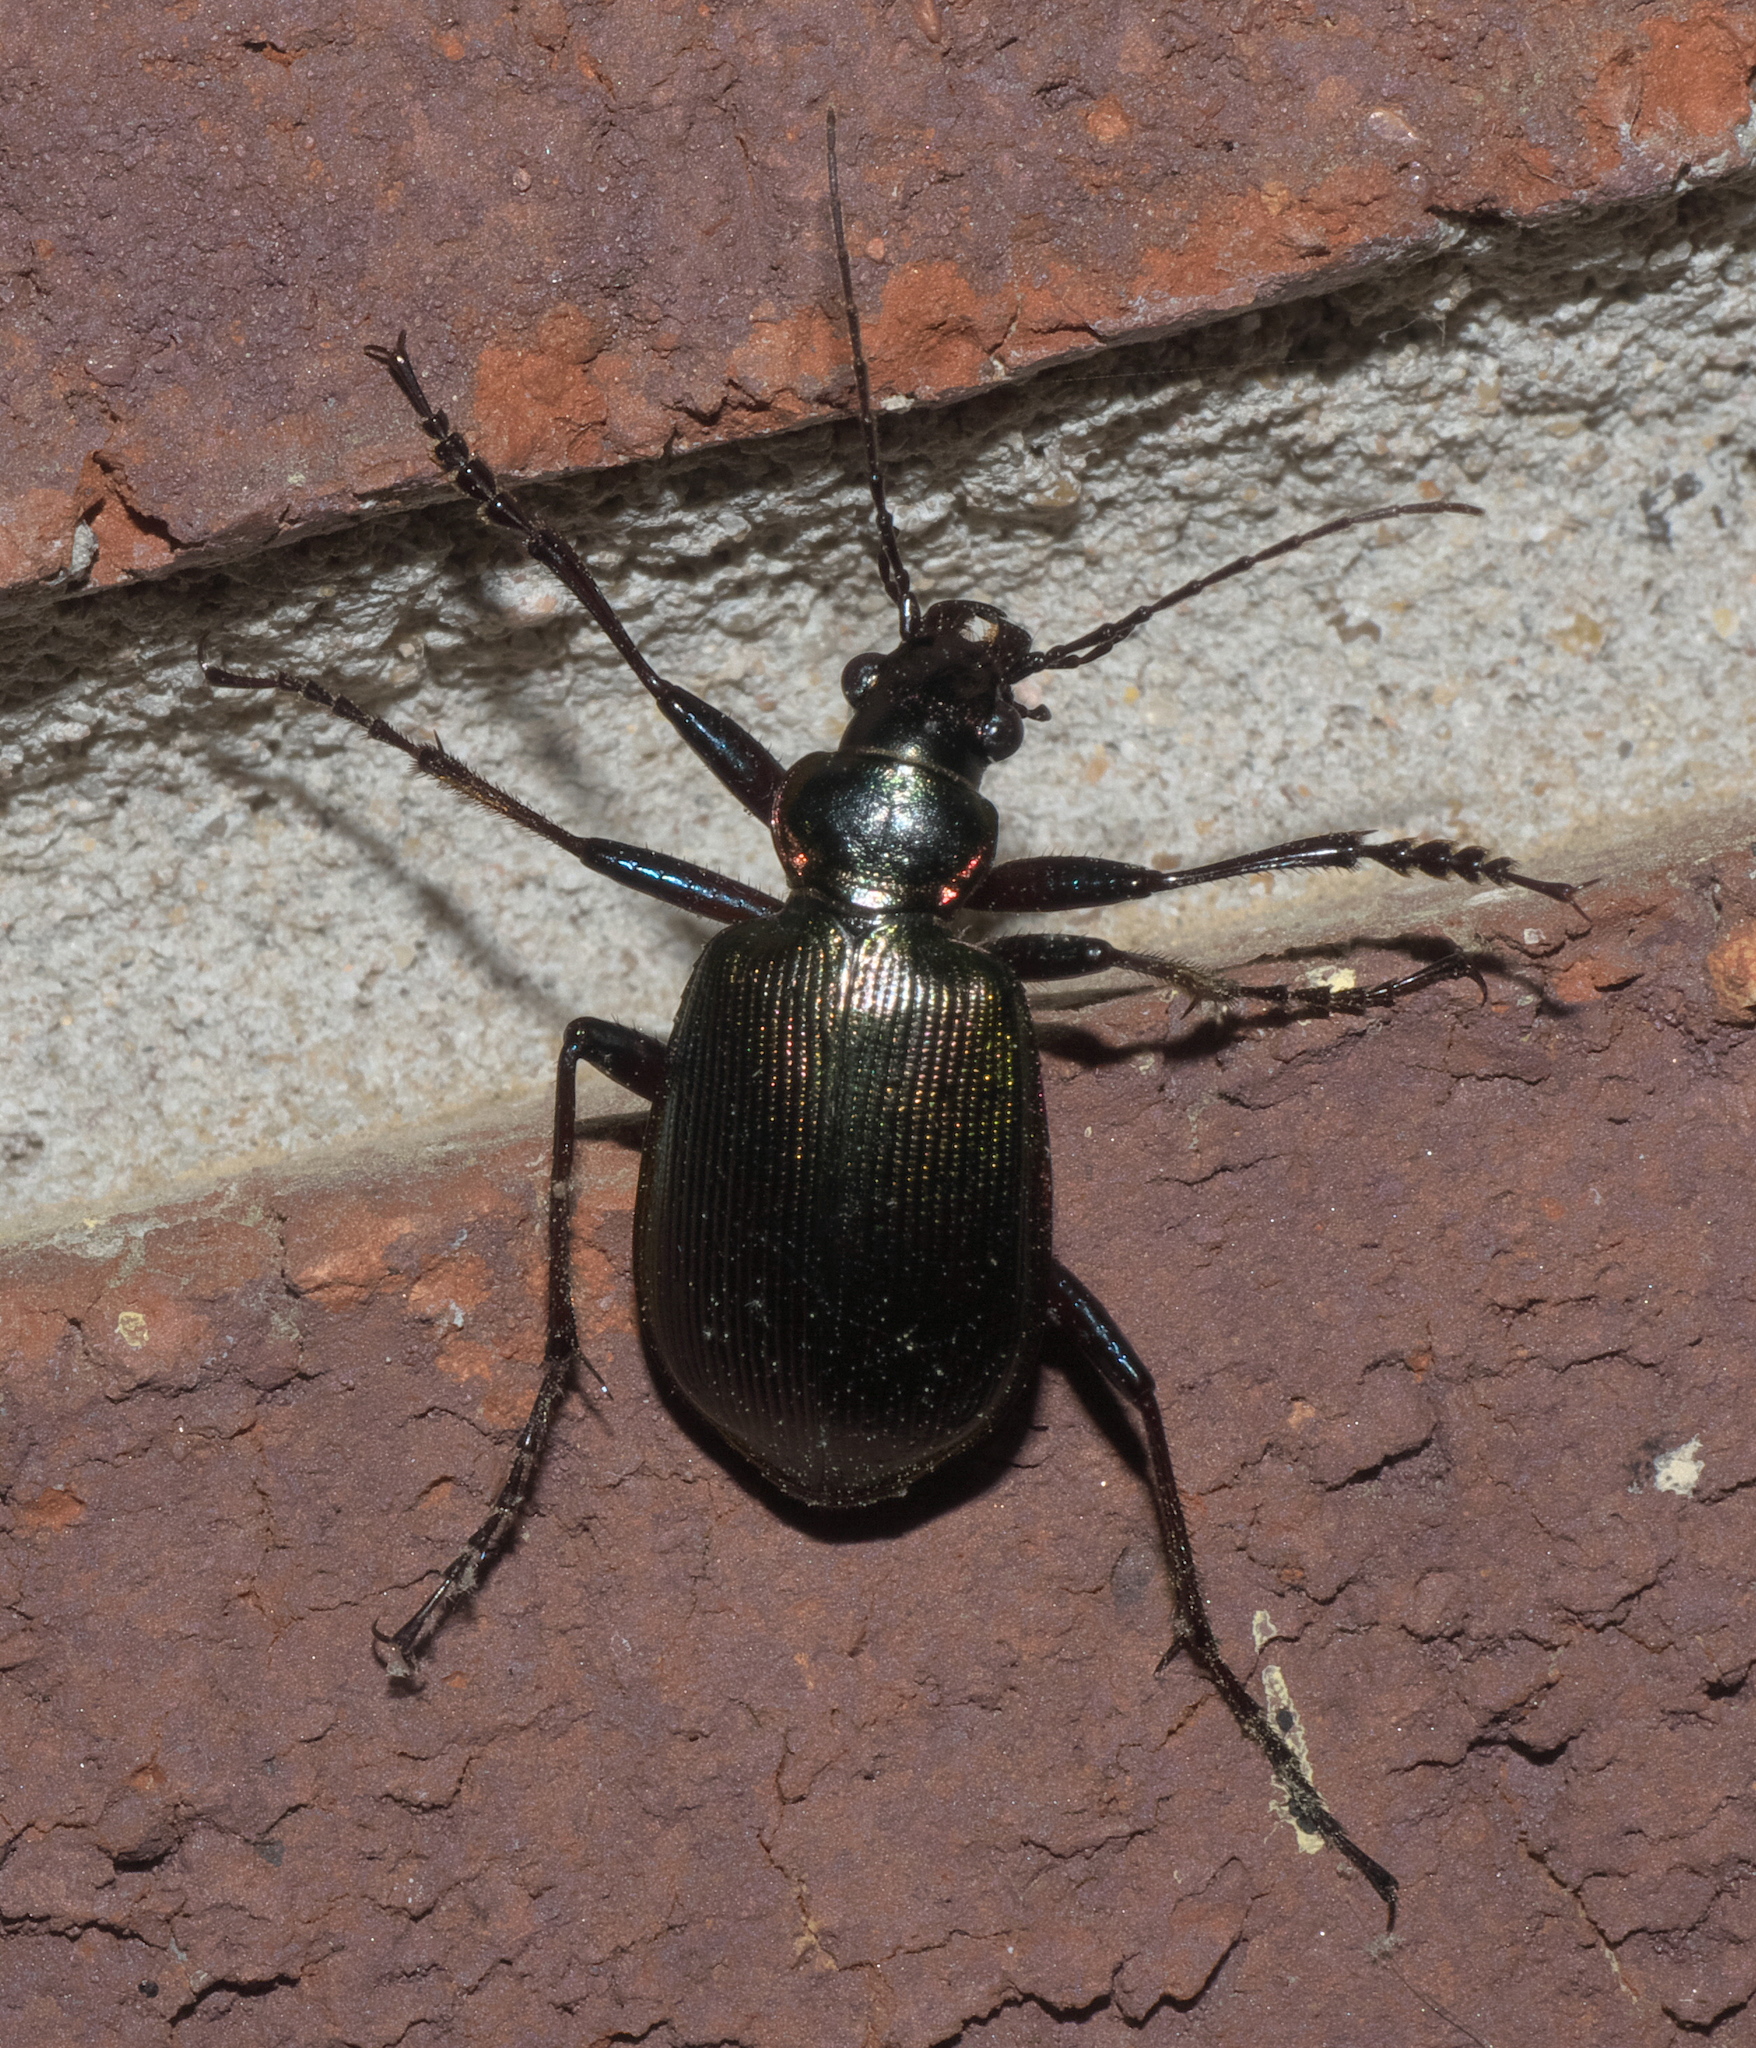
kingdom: Animalia
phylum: Arthropoda
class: Insecta
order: Coleoptera
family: Carabidae
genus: Calosoma
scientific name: Calosoma wilcoxi
